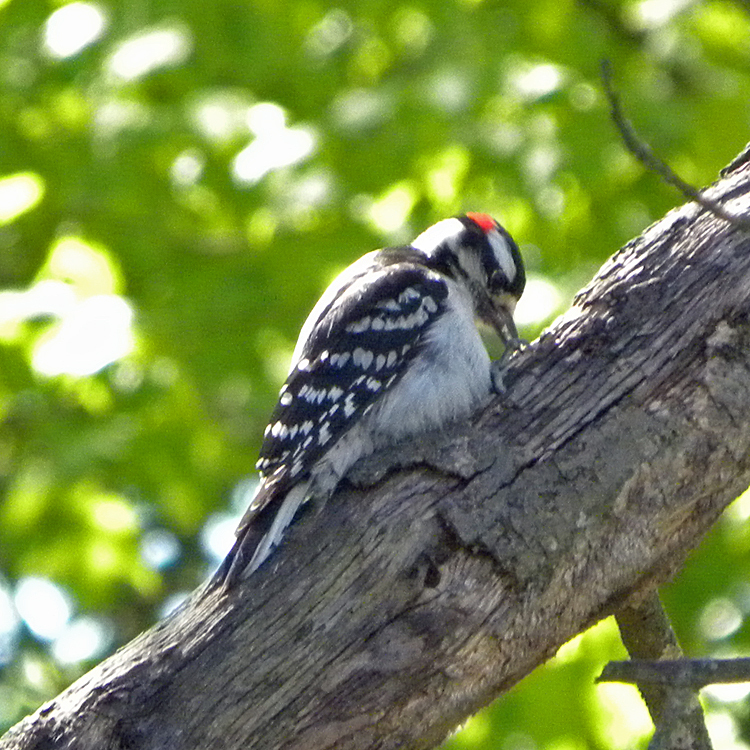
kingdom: Animalia
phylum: Chordata
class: Aves
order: Piciformes
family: Picidae
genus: Dryobates
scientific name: Dryobates pubescens
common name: Downy woodpecker
